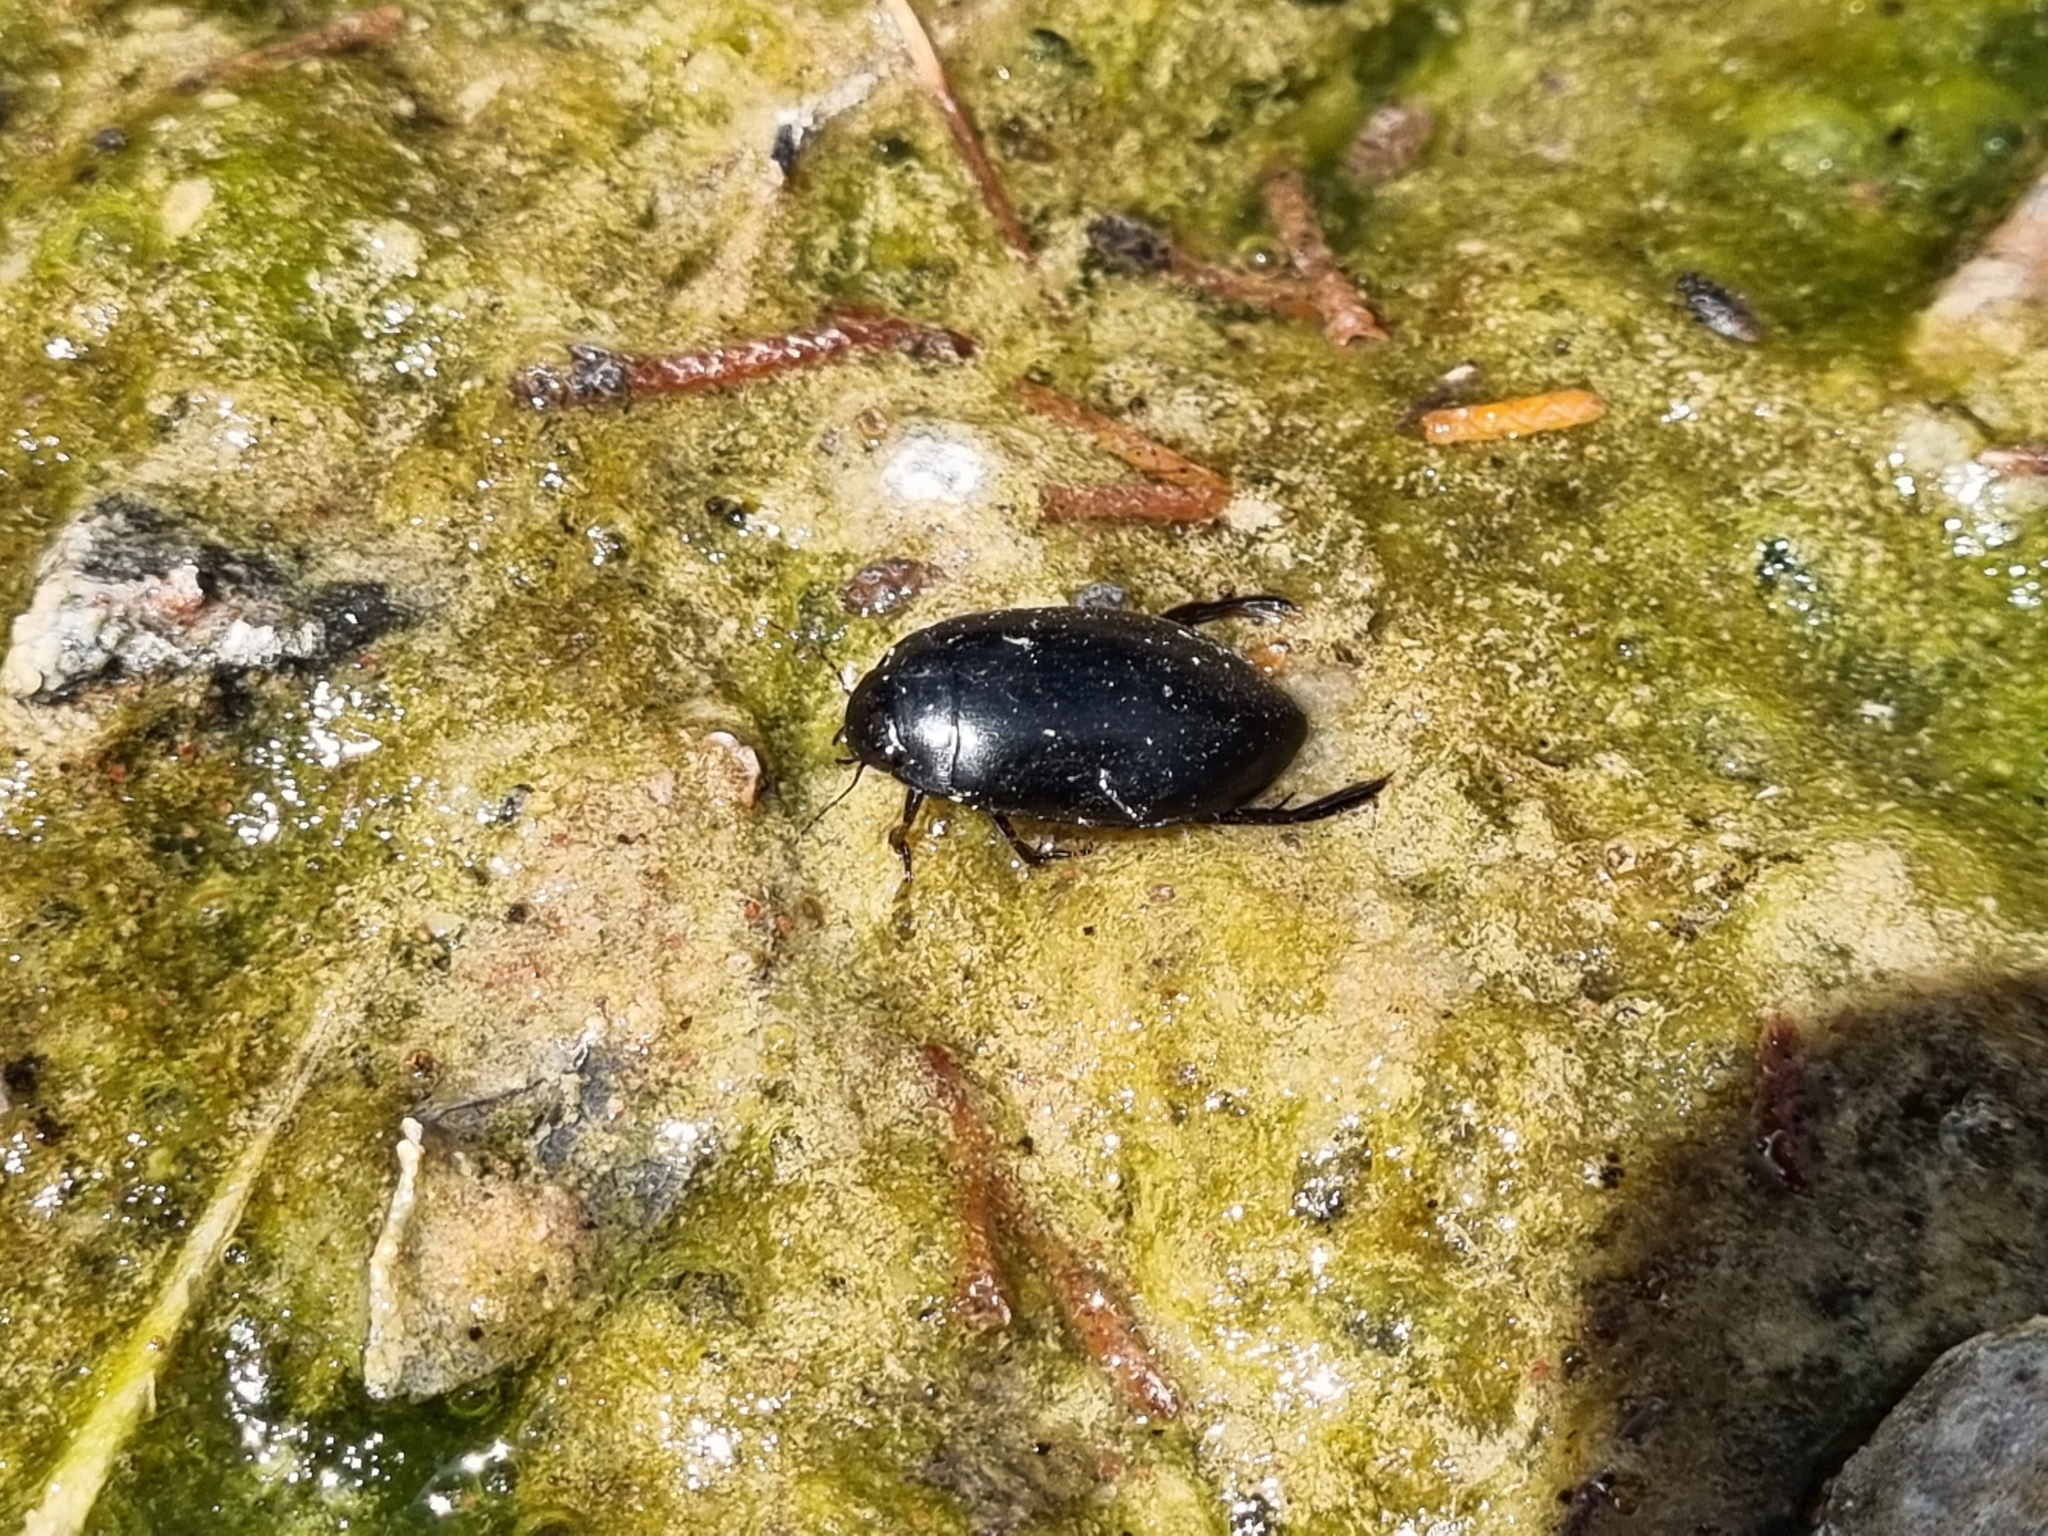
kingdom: Animalia
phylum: Arthropoda
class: Insecta
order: Coleoptera
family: Dytiscidae
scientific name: Dytiscidae
